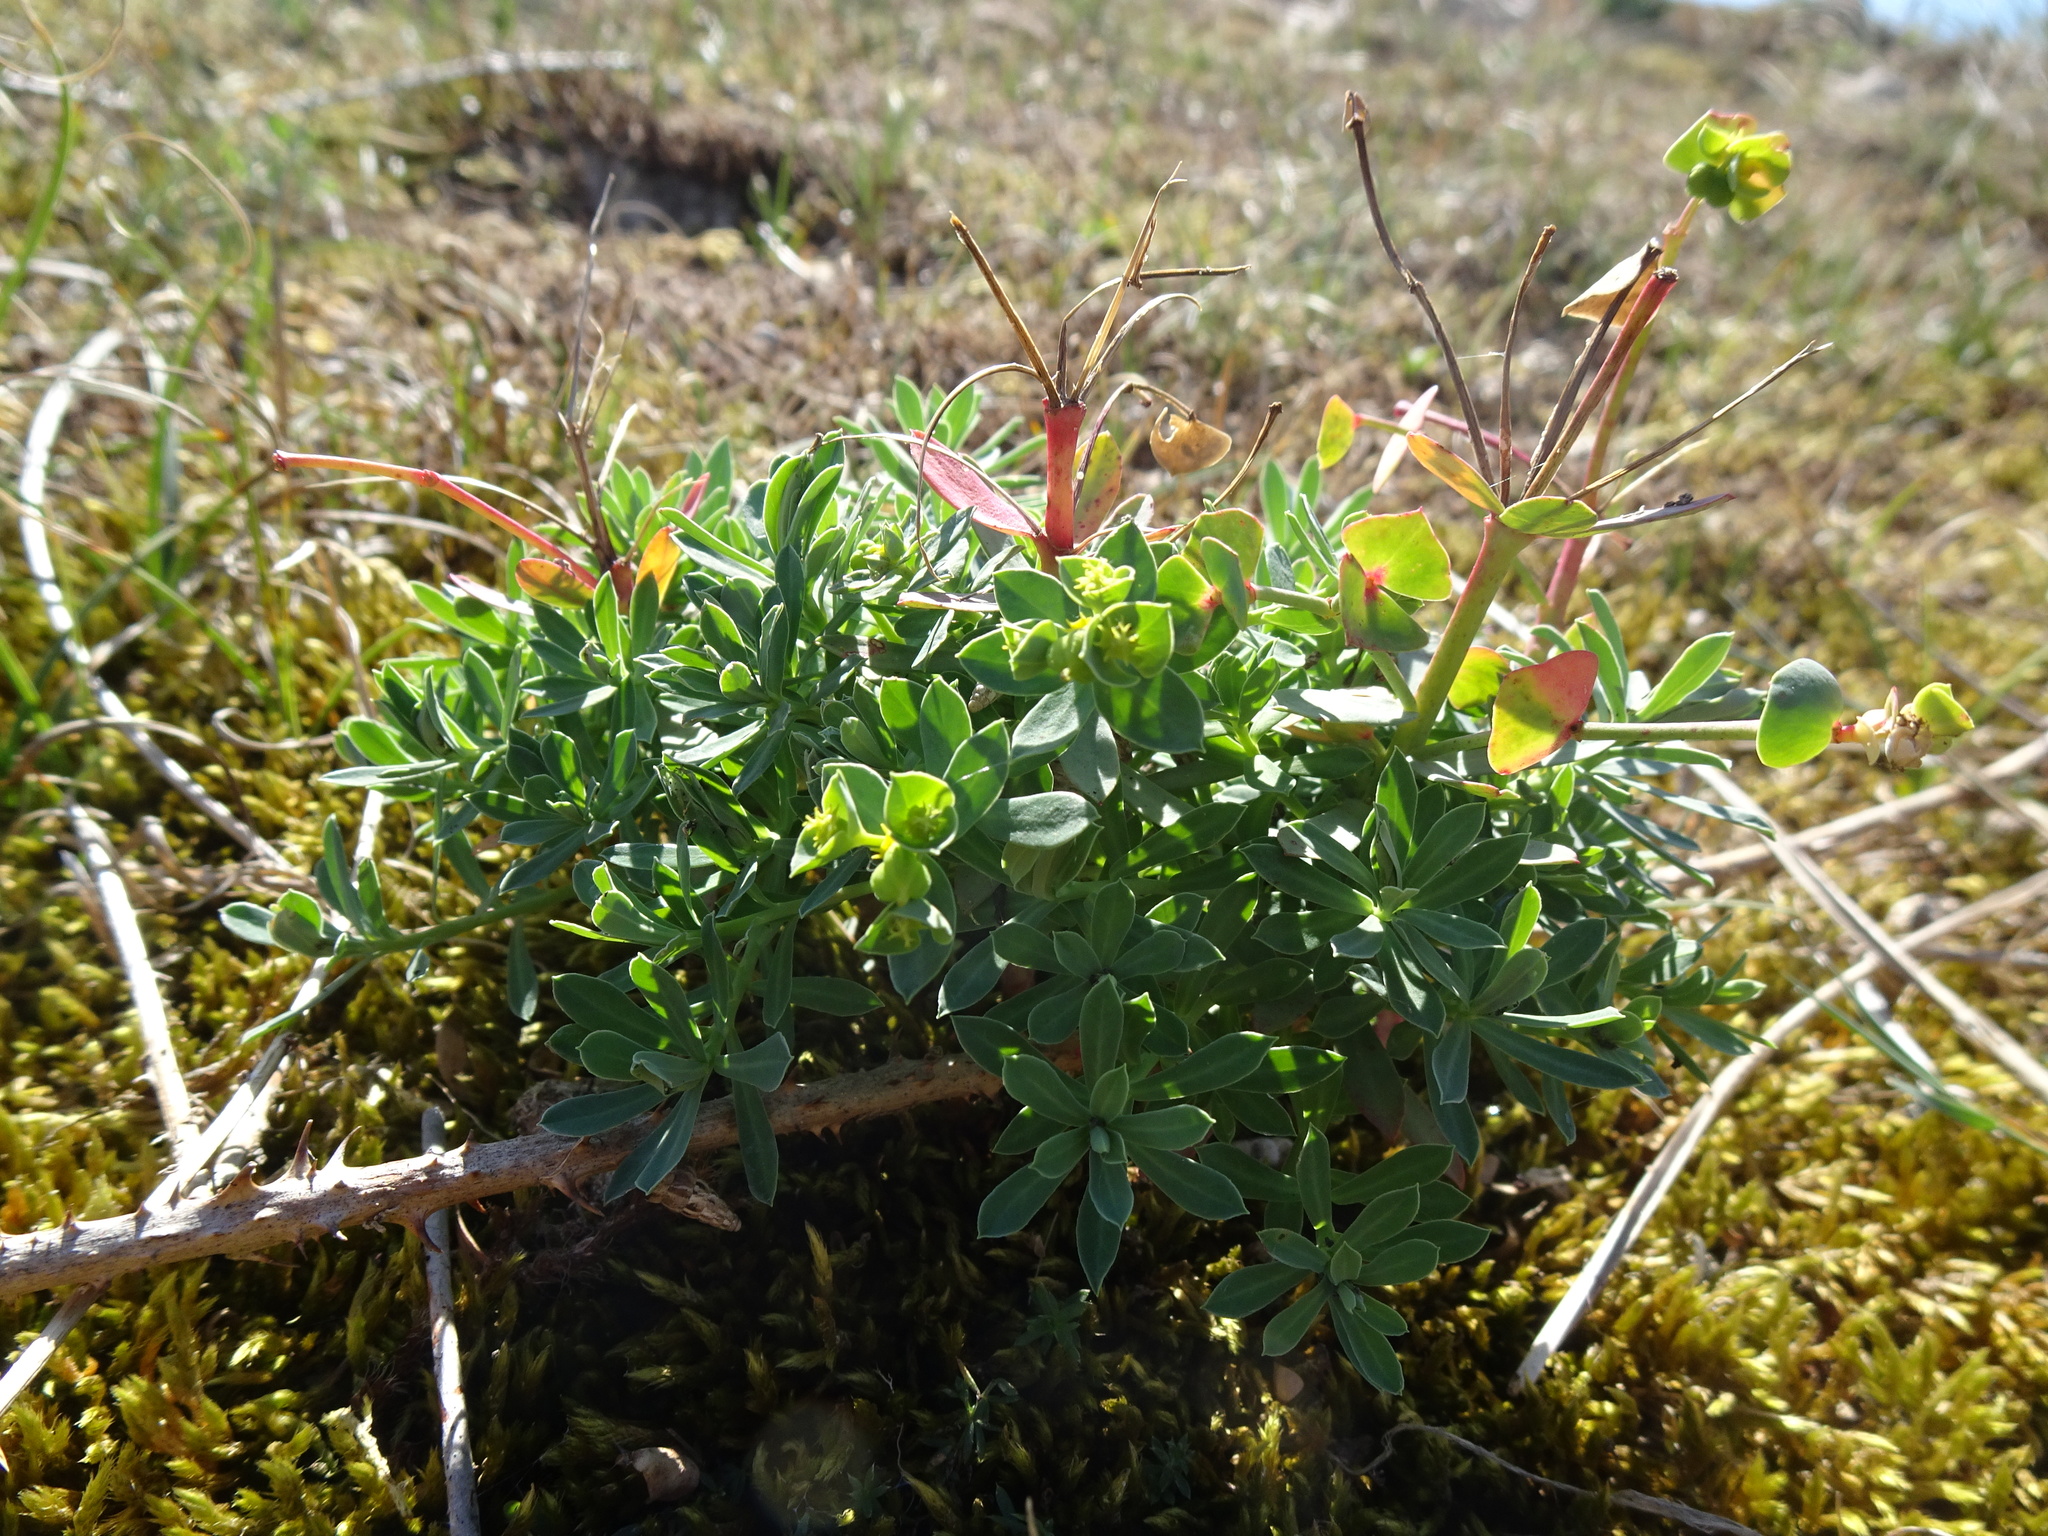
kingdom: Plantae
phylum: Tracheophyta
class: Magnoliopsida
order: Malpighiales
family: Euphorbiaceae
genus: Euphorbia
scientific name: Euphorbia portlandica
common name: Portland spurge
